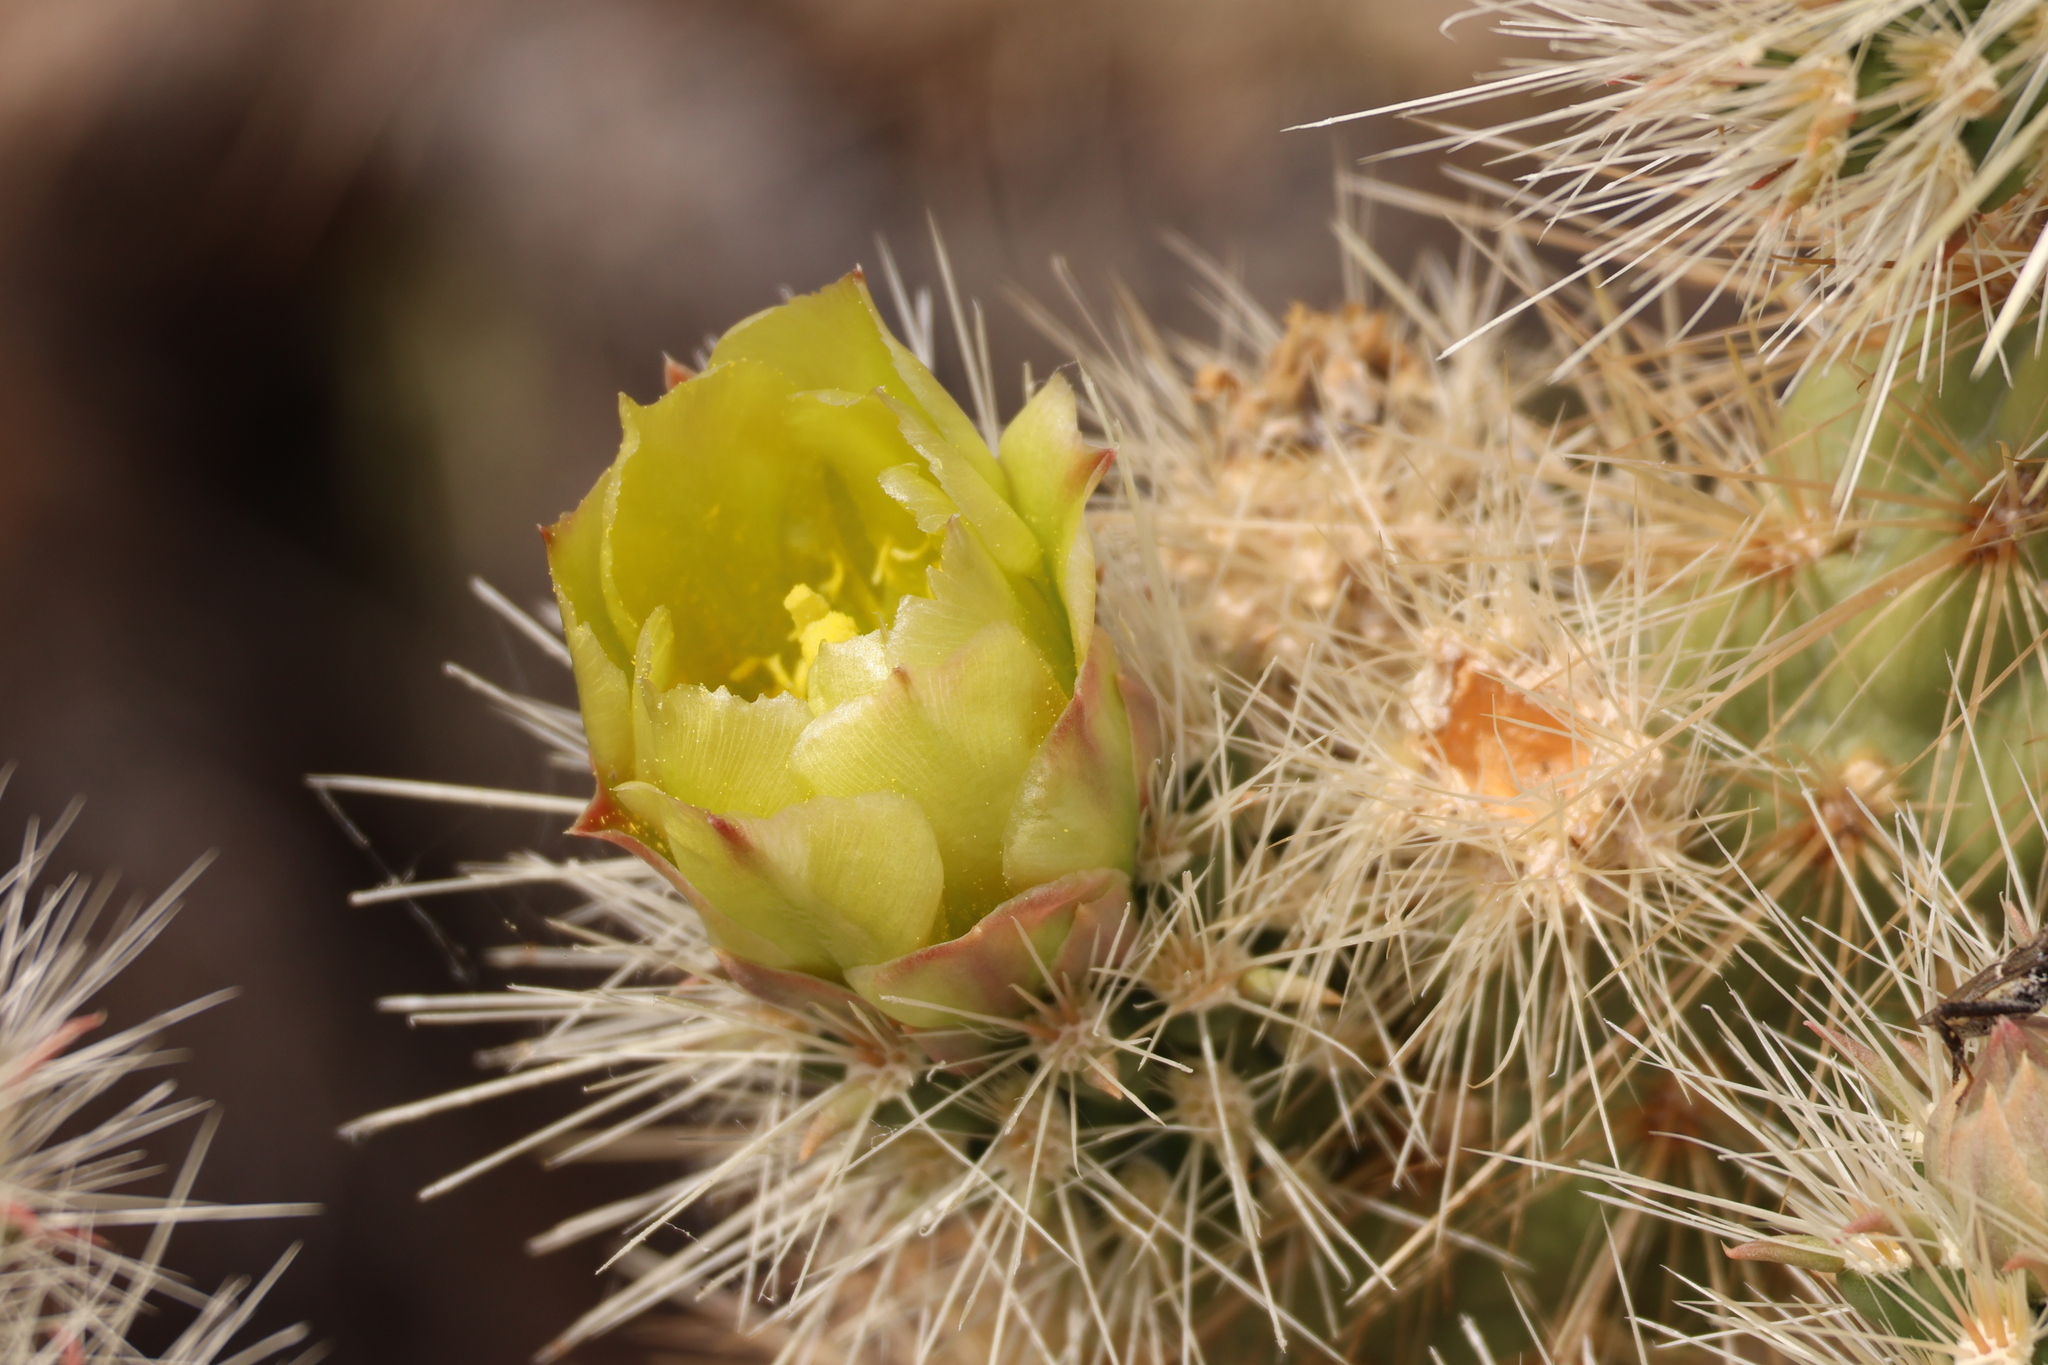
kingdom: Plantae
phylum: Tracheophyta
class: Magnoliopsida
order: Caryophyllales
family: Cactaceae
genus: Cylindropuntia
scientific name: Cylindropuntia ganderi
